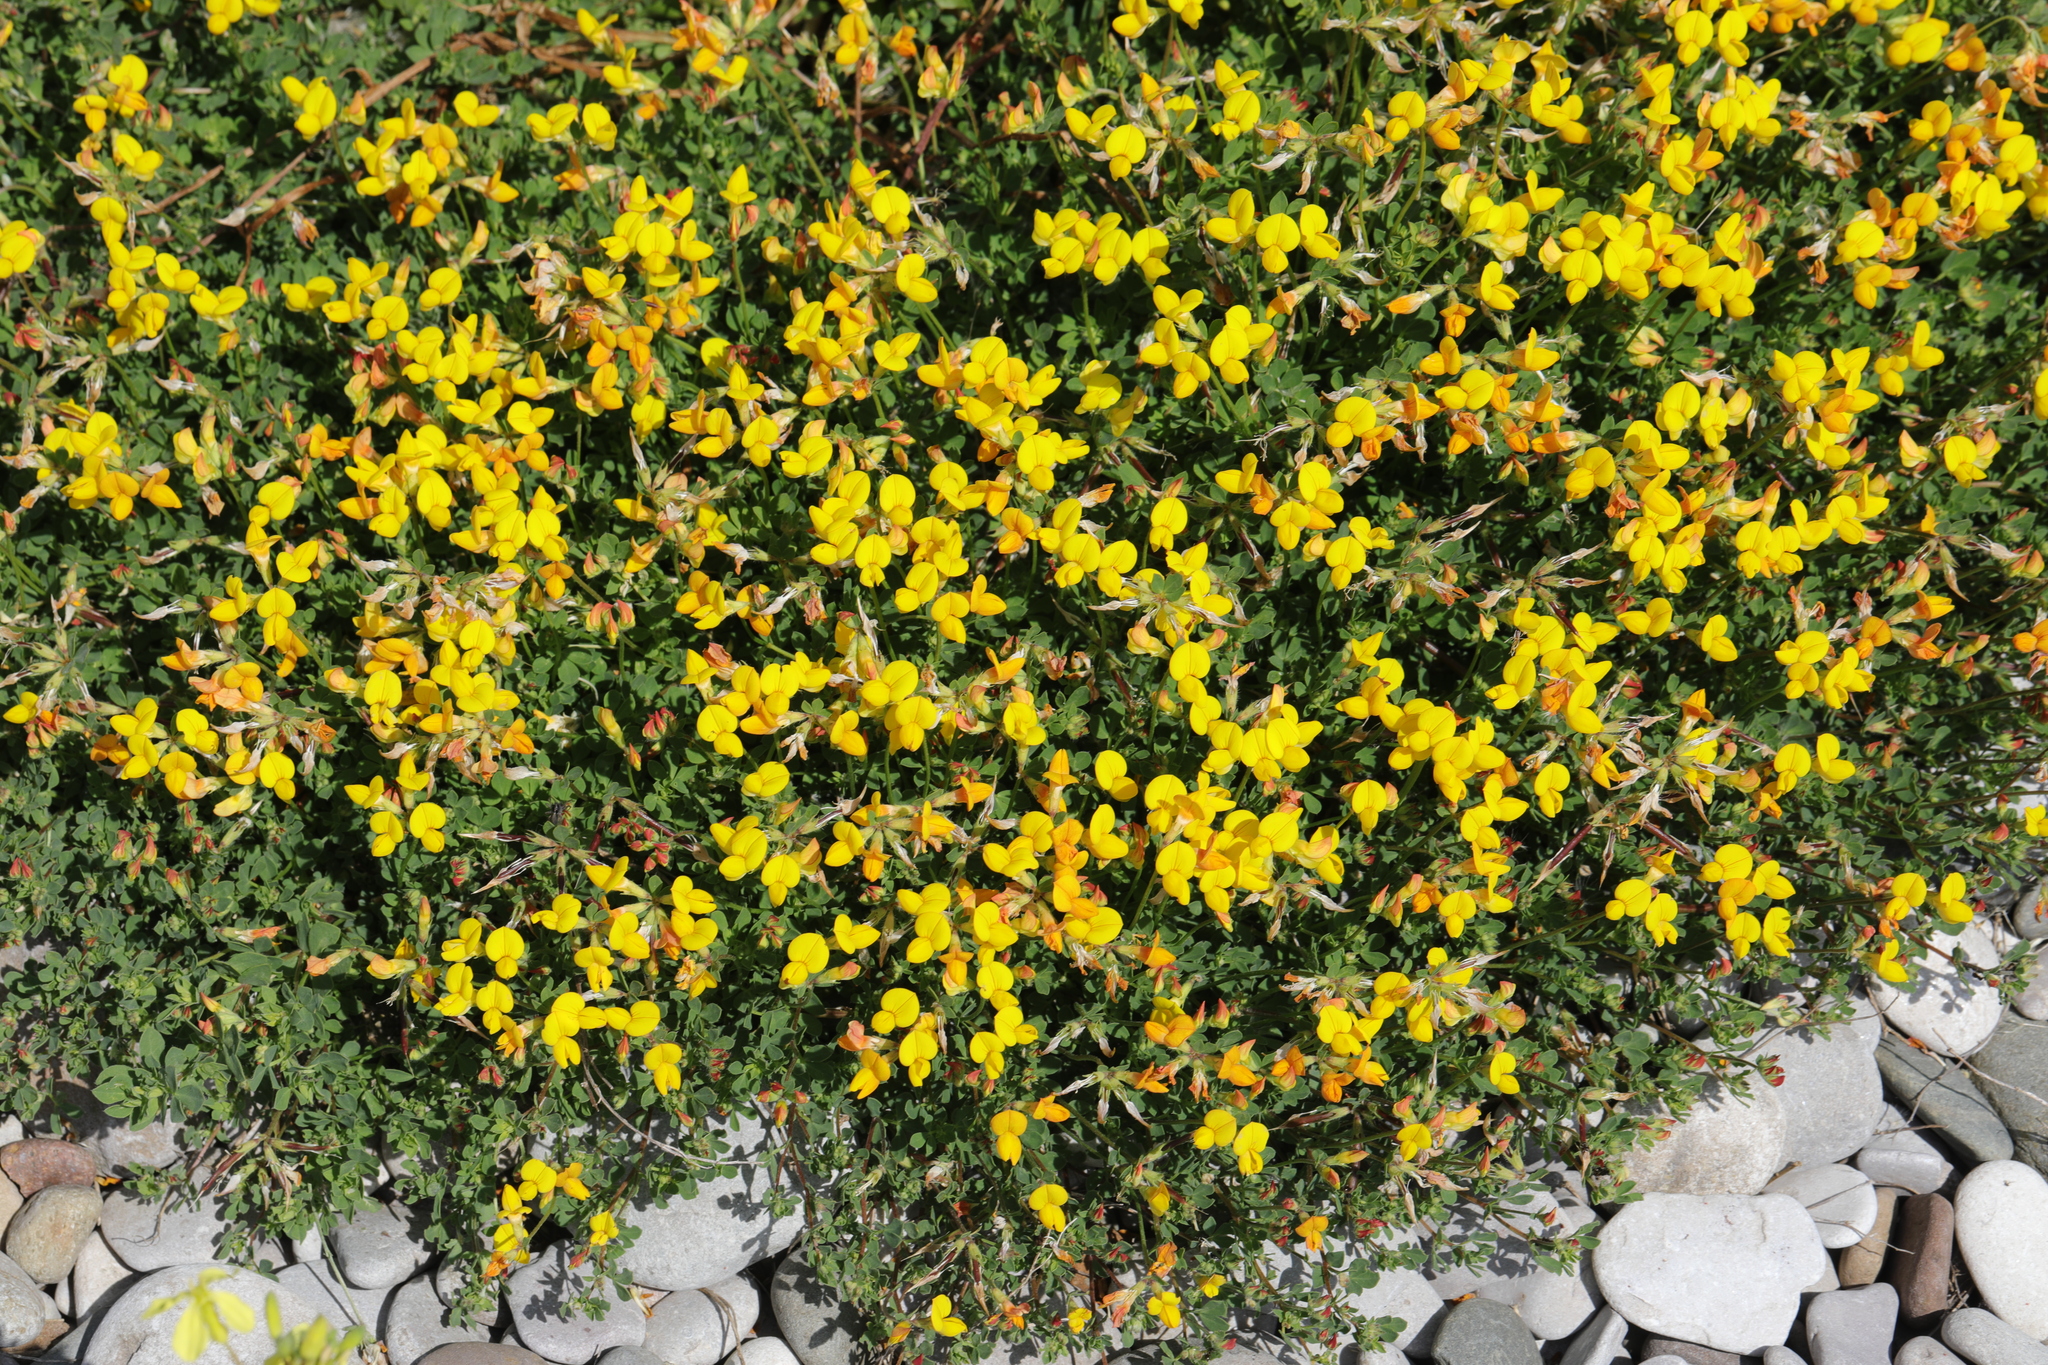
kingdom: Plantae
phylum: Tracheophyta
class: Magnoliopsida
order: Fabales
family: Fabaceae
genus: Lotus
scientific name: Lotus corniculatus
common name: Common bird's-foot-trefoil
